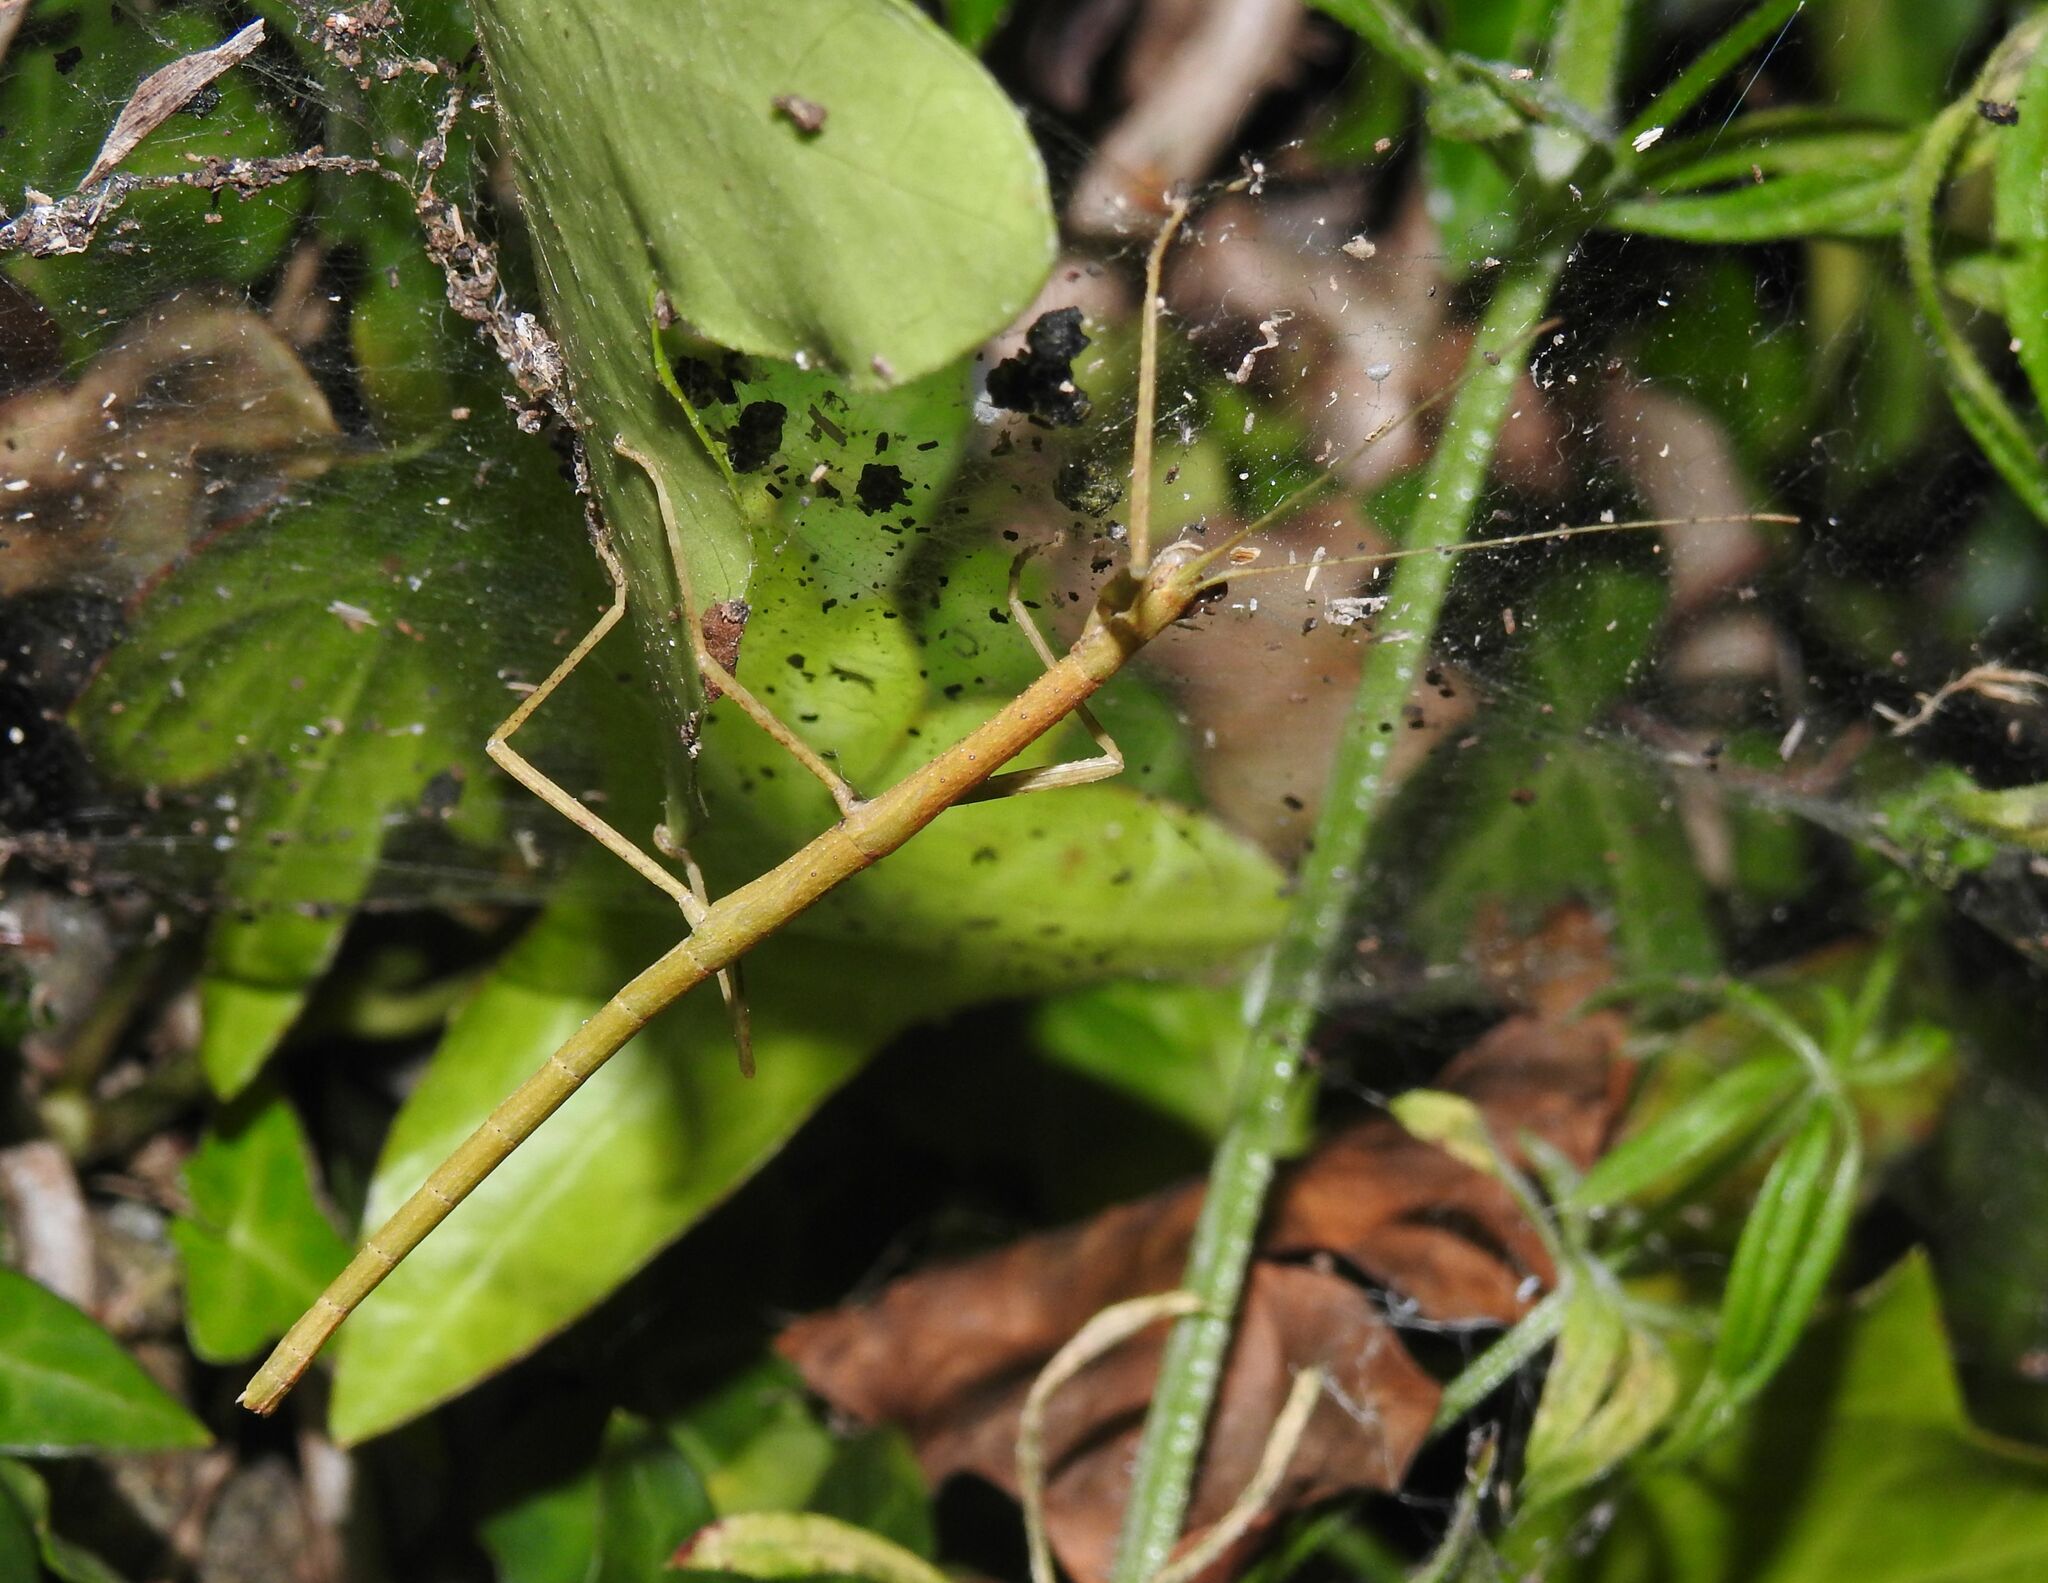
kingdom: Animalia
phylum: Arthropoda
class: Insecta
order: Phasmida
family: Lonchodidae
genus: Carausius
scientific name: Carausius morosus
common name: Indian stick insect
